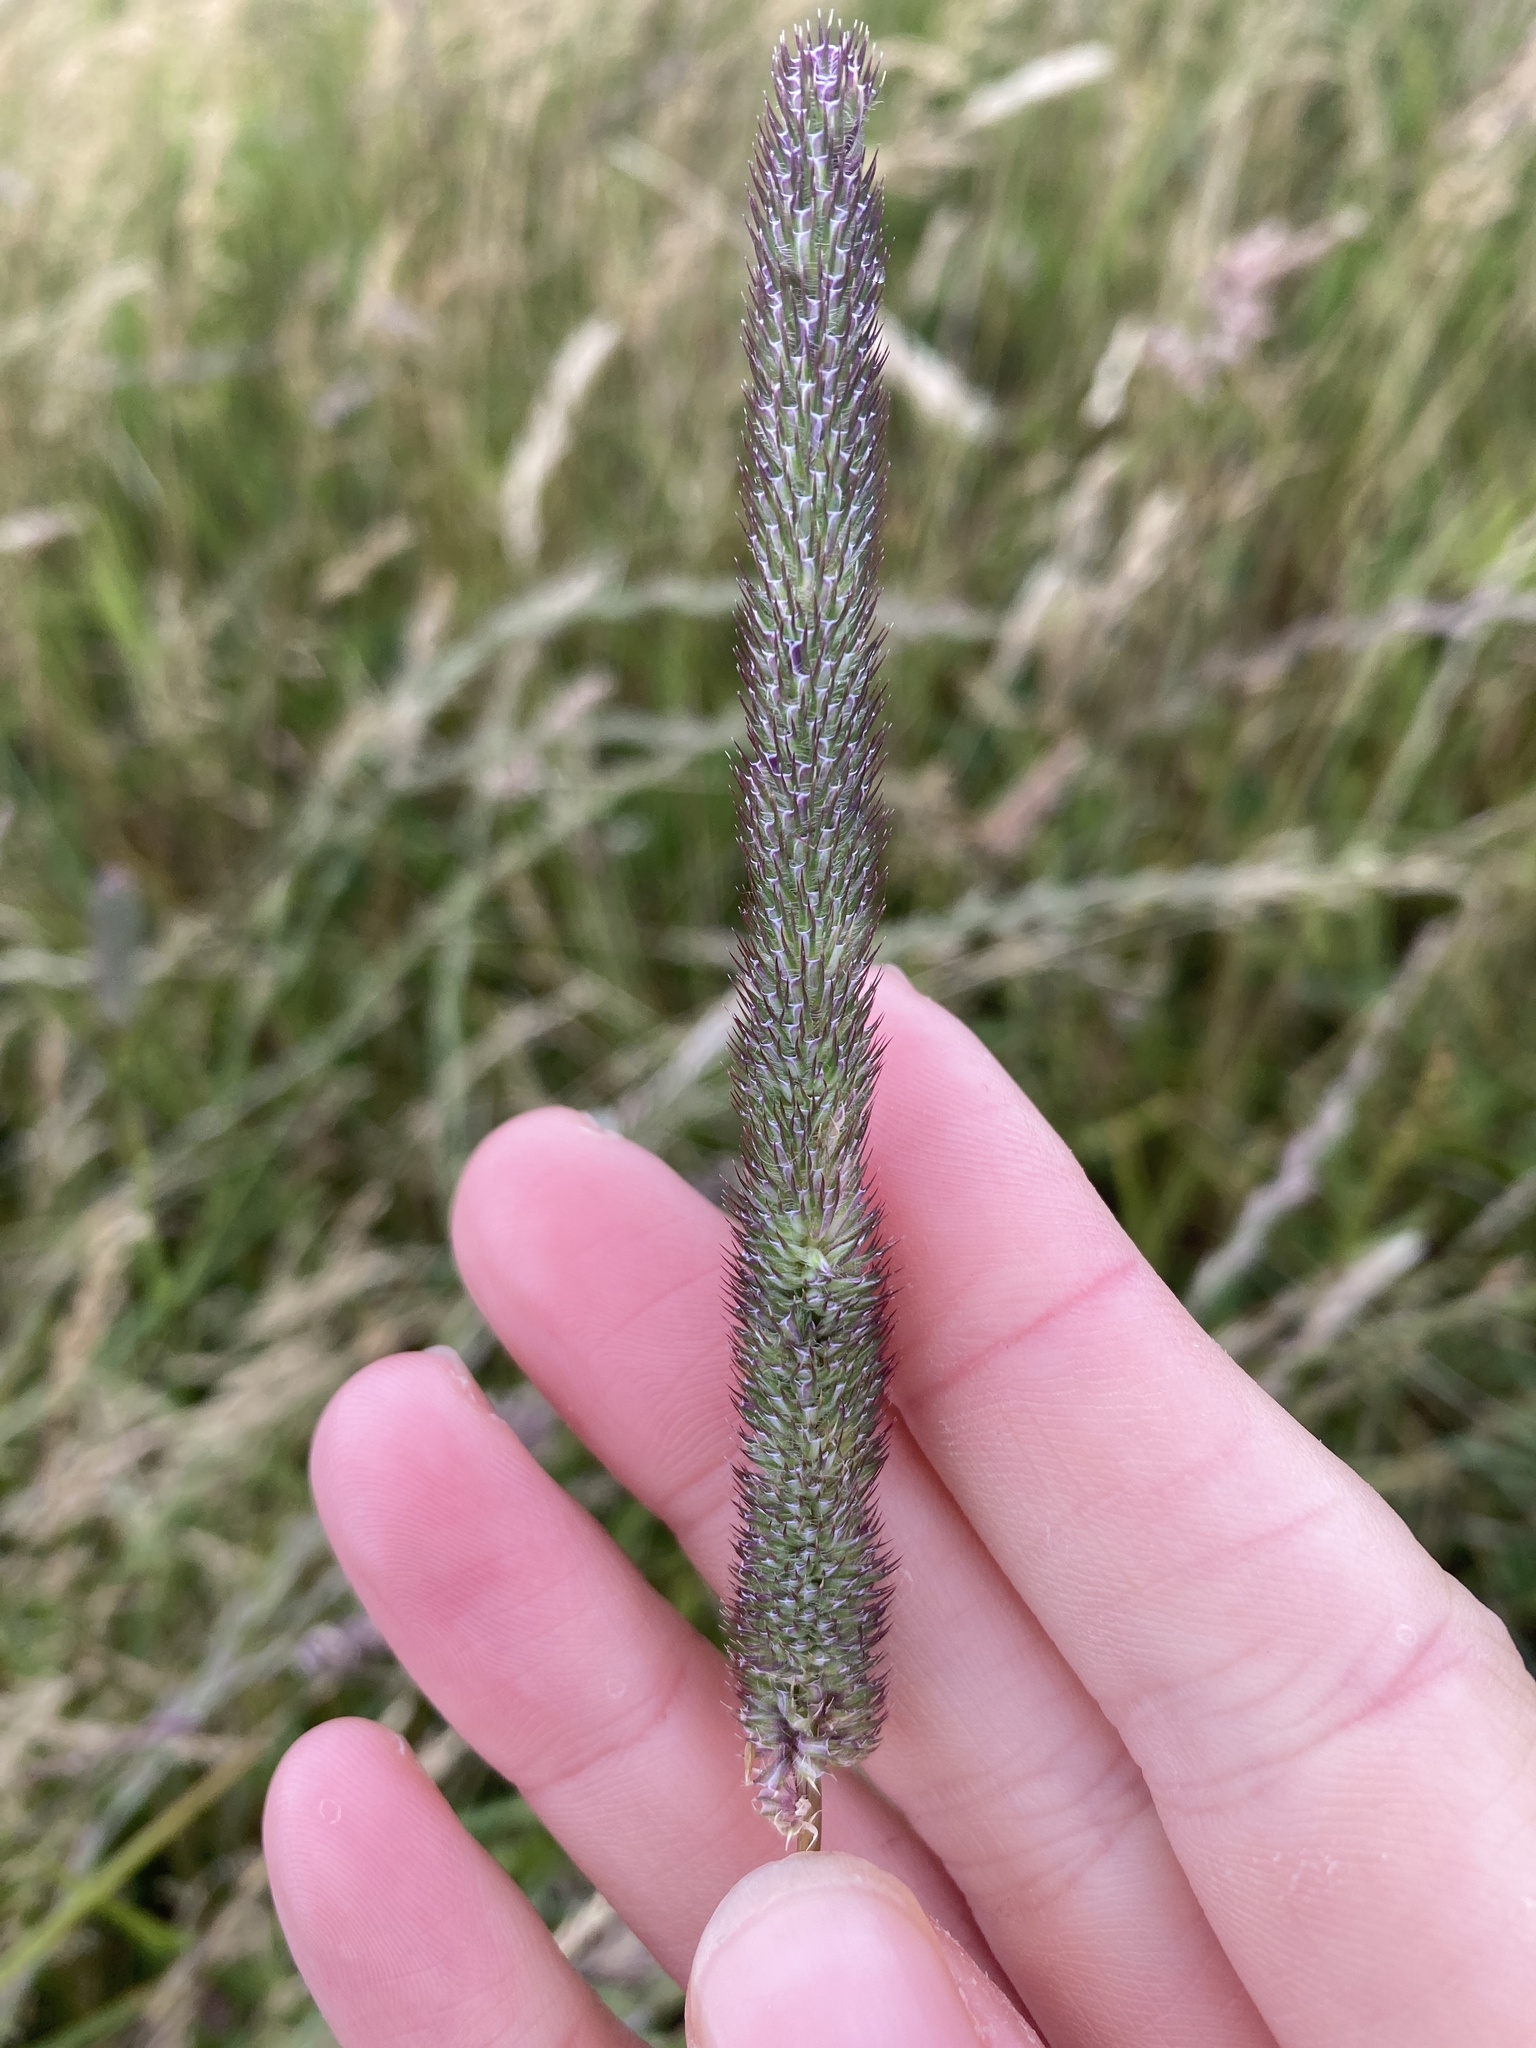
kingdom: Plantae
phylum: Tracheophyta
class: Liliopsida
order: Poales
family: Poaceae
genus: Phleum
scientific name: Phleum pratense
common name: Timothy grass
